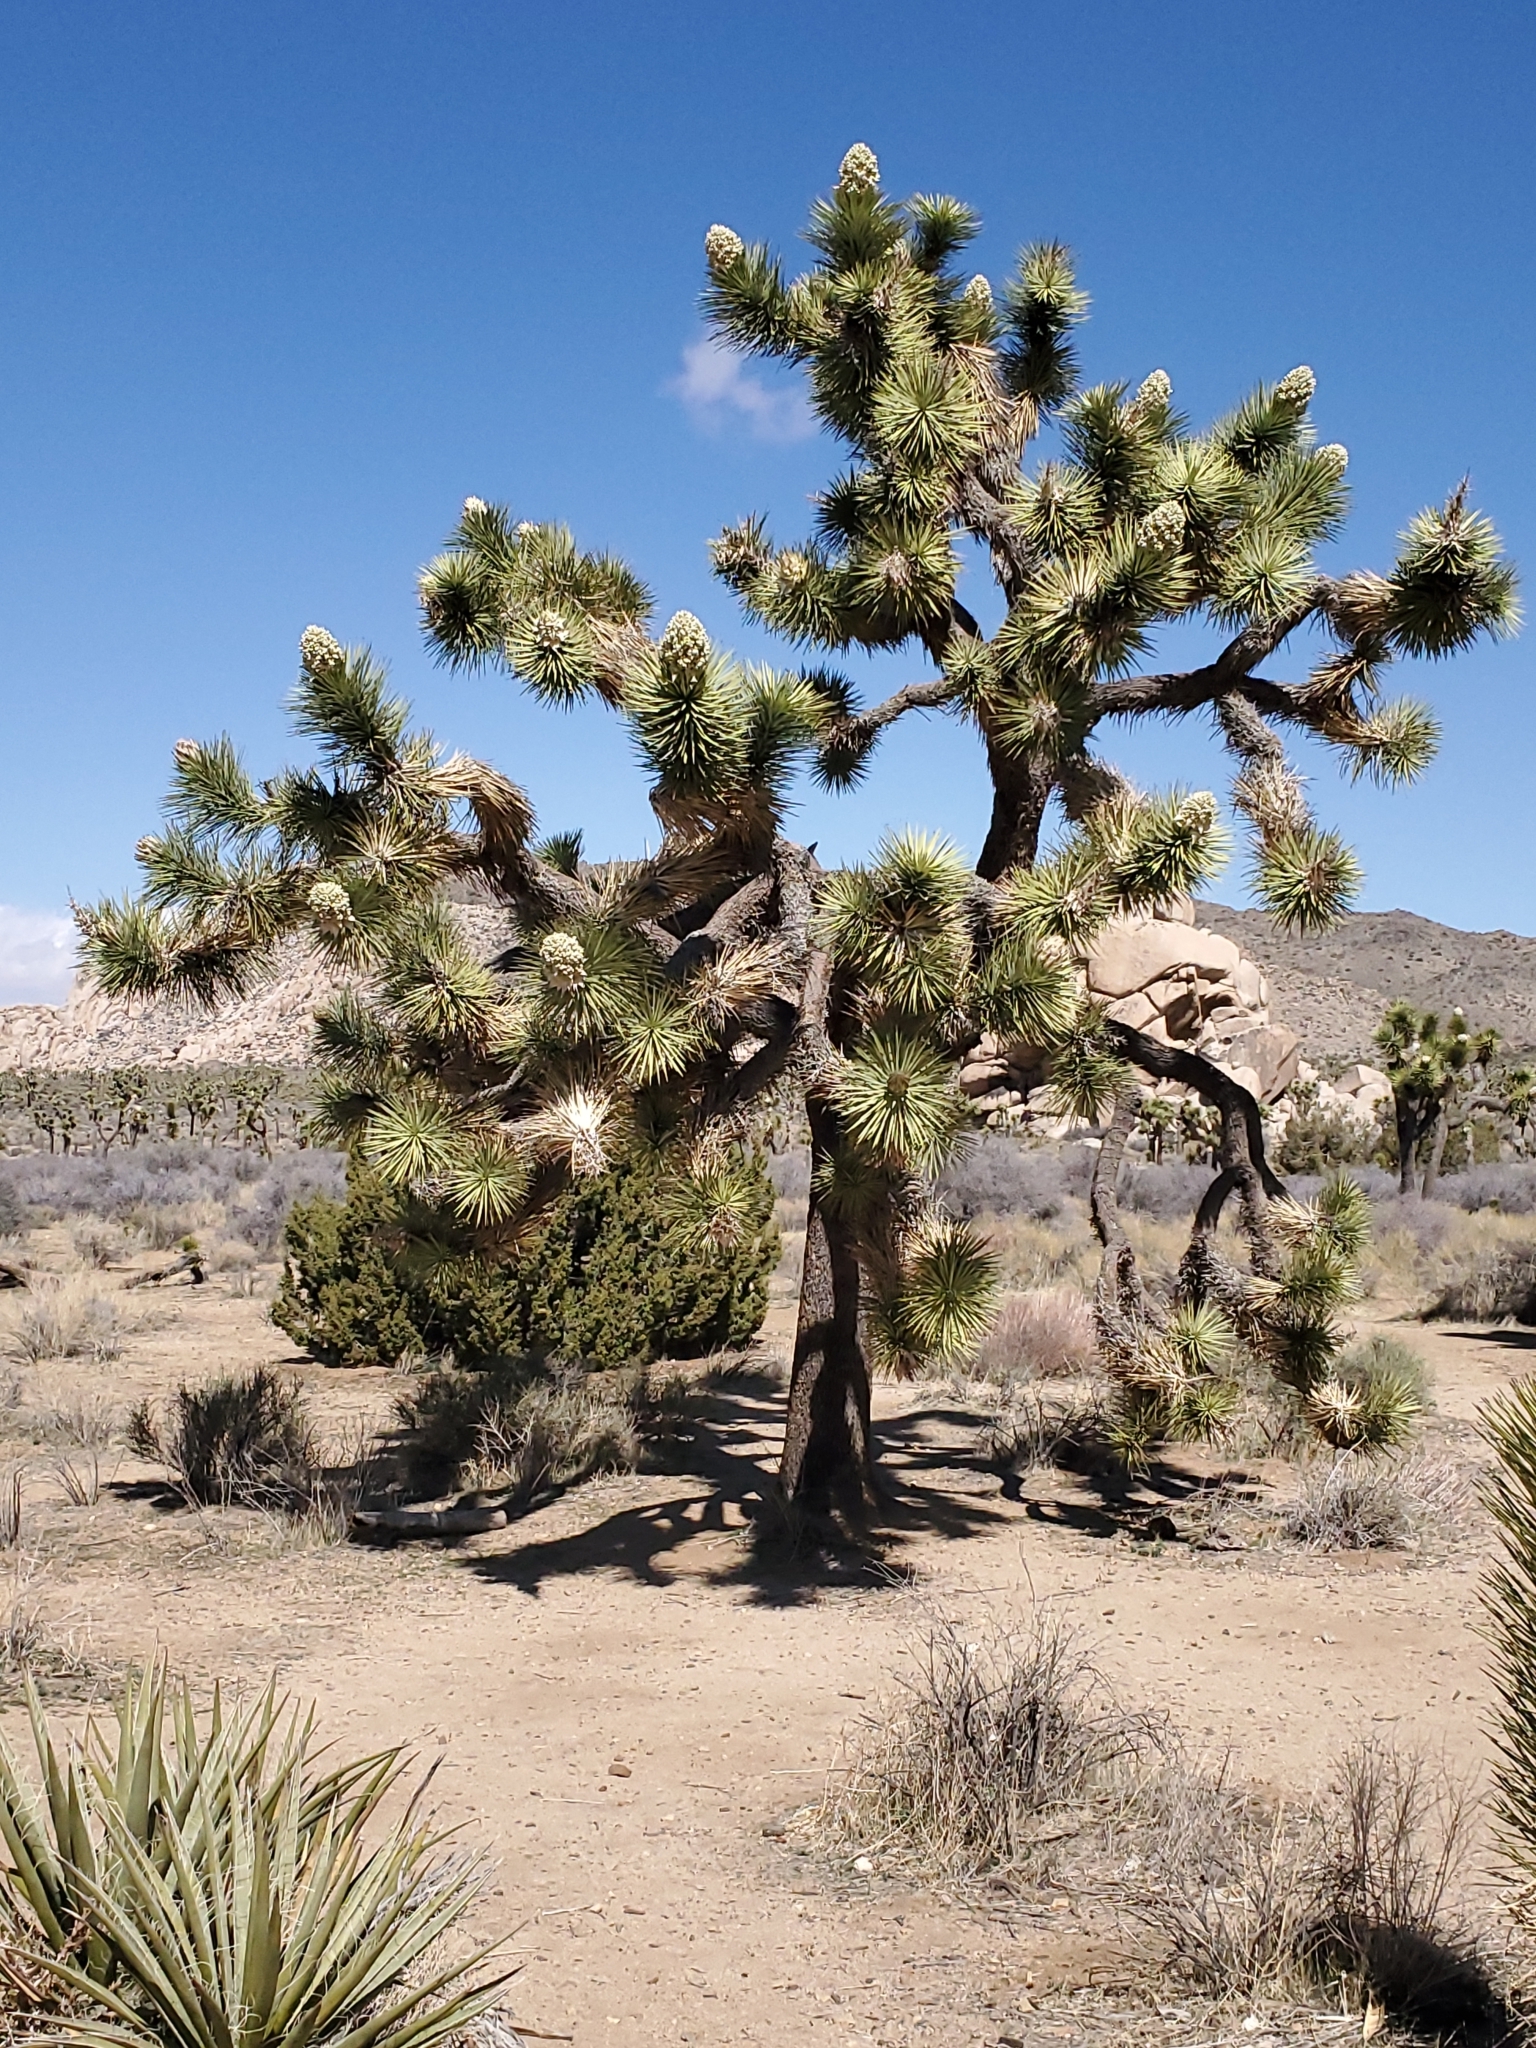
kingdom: Plantae
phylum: Tracheophyta
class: Liliopsida
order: Asparagales
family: Asparagaceae
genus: Yucca
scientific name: Yucca brevifolia
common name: Joshua tree
